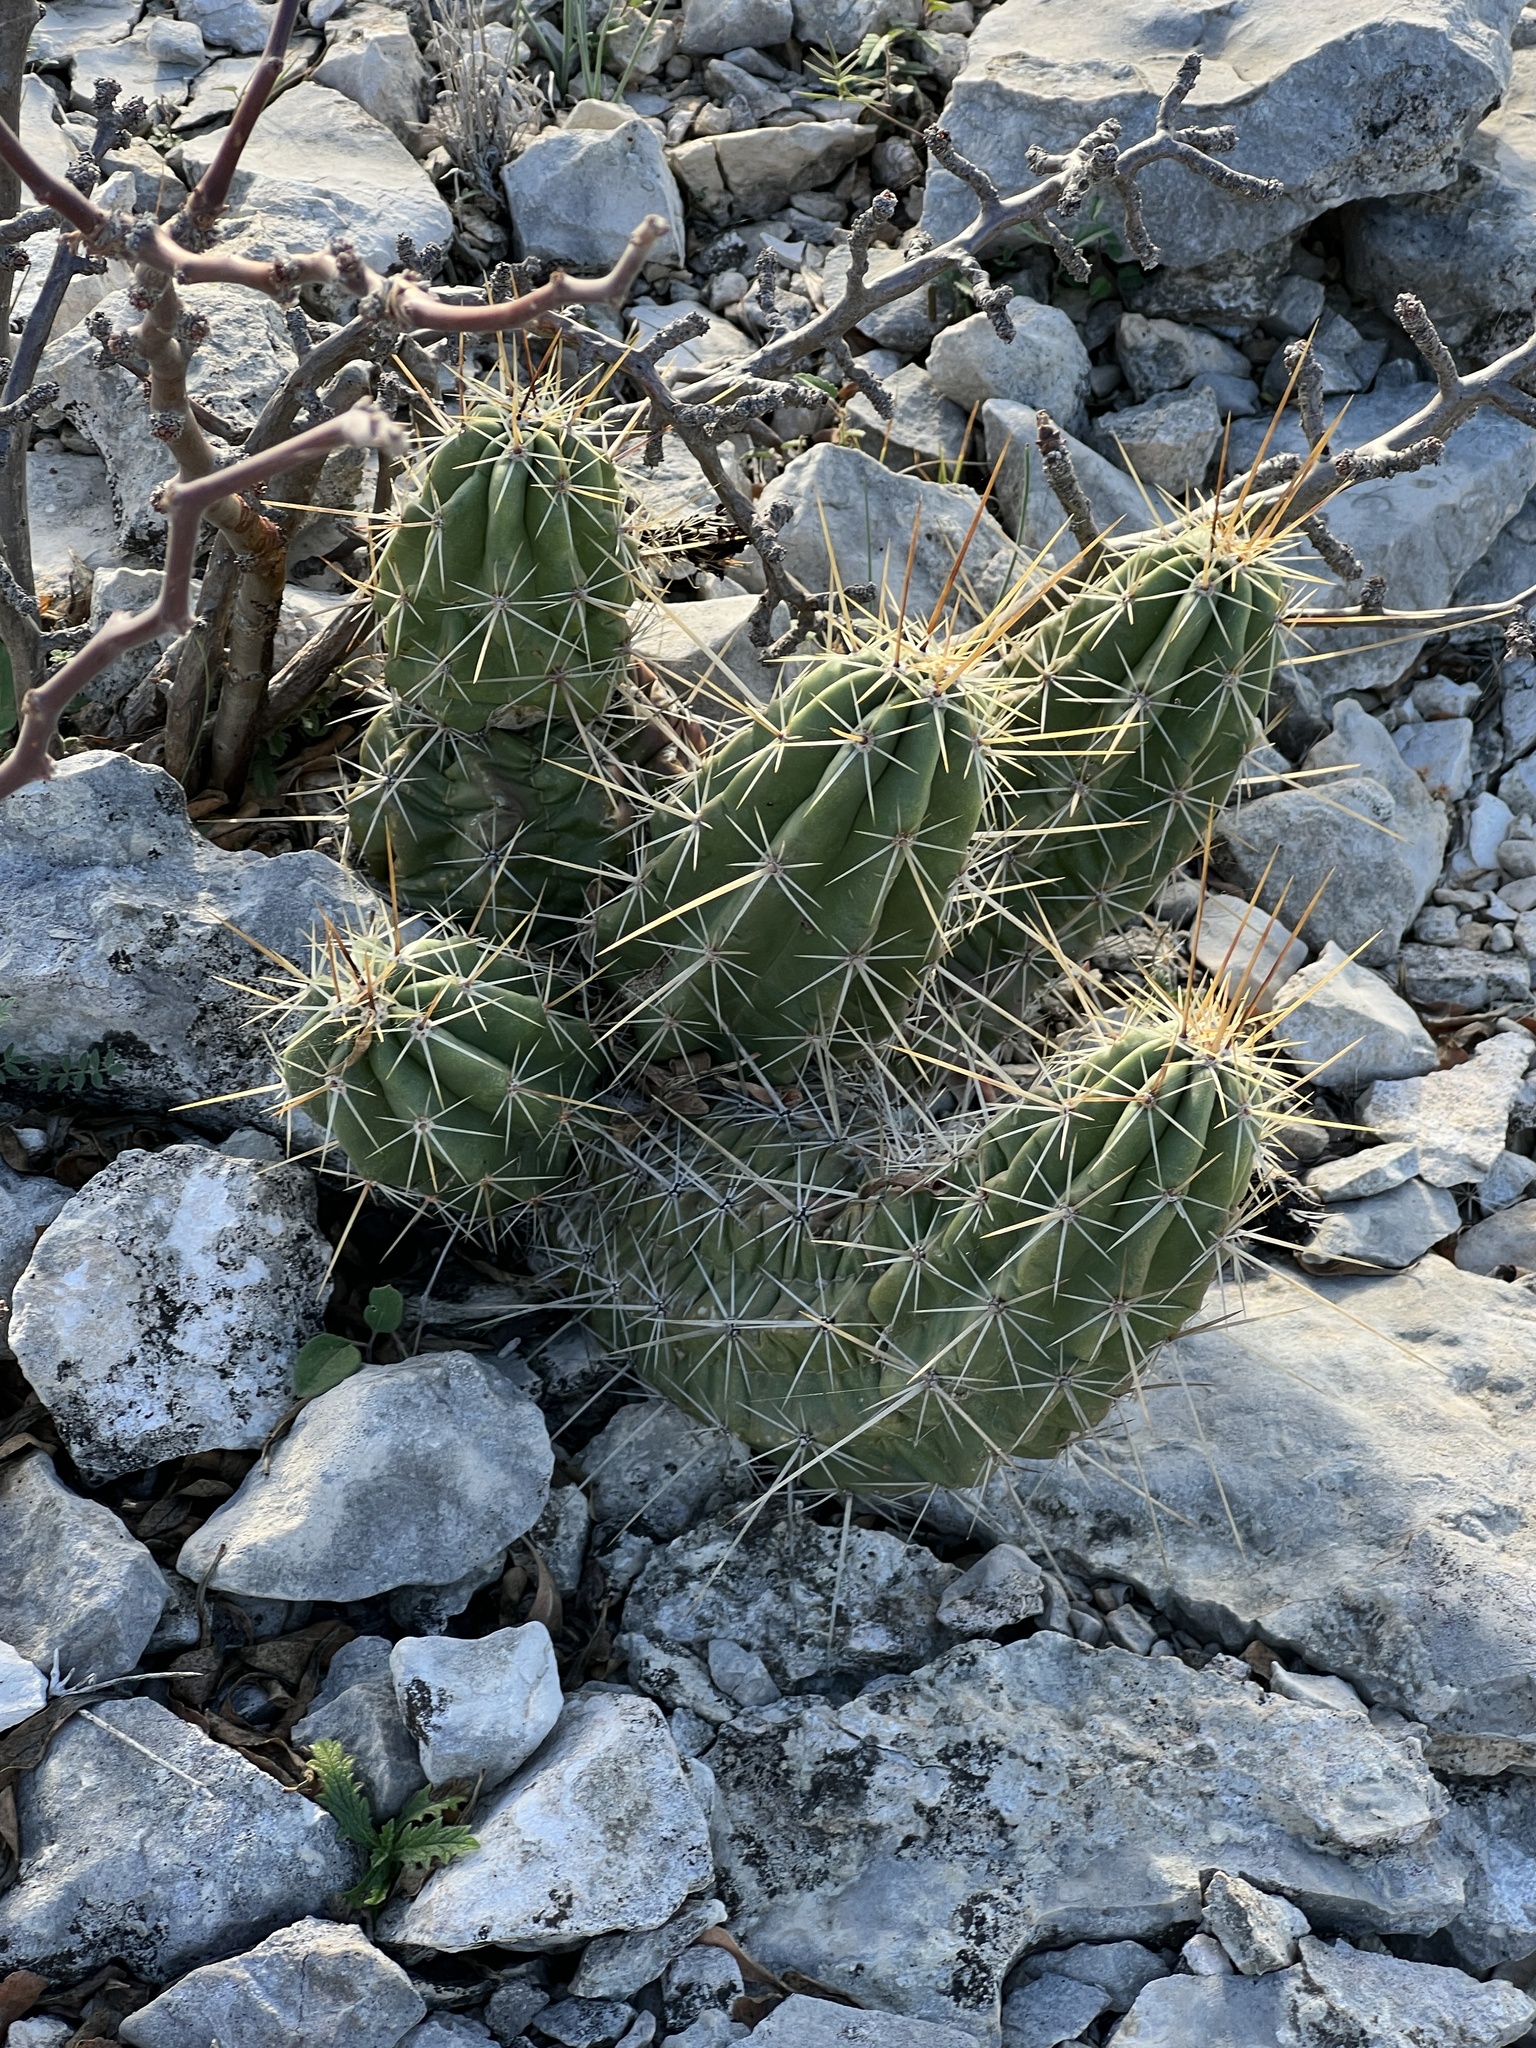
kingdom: Plantae
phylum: Tracheophyta
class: Magnoliopsida
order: Caryophyllales
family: Cactaceae
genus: Echinocereus
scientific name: Echinocereus enneacanthus
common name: Pitaya
